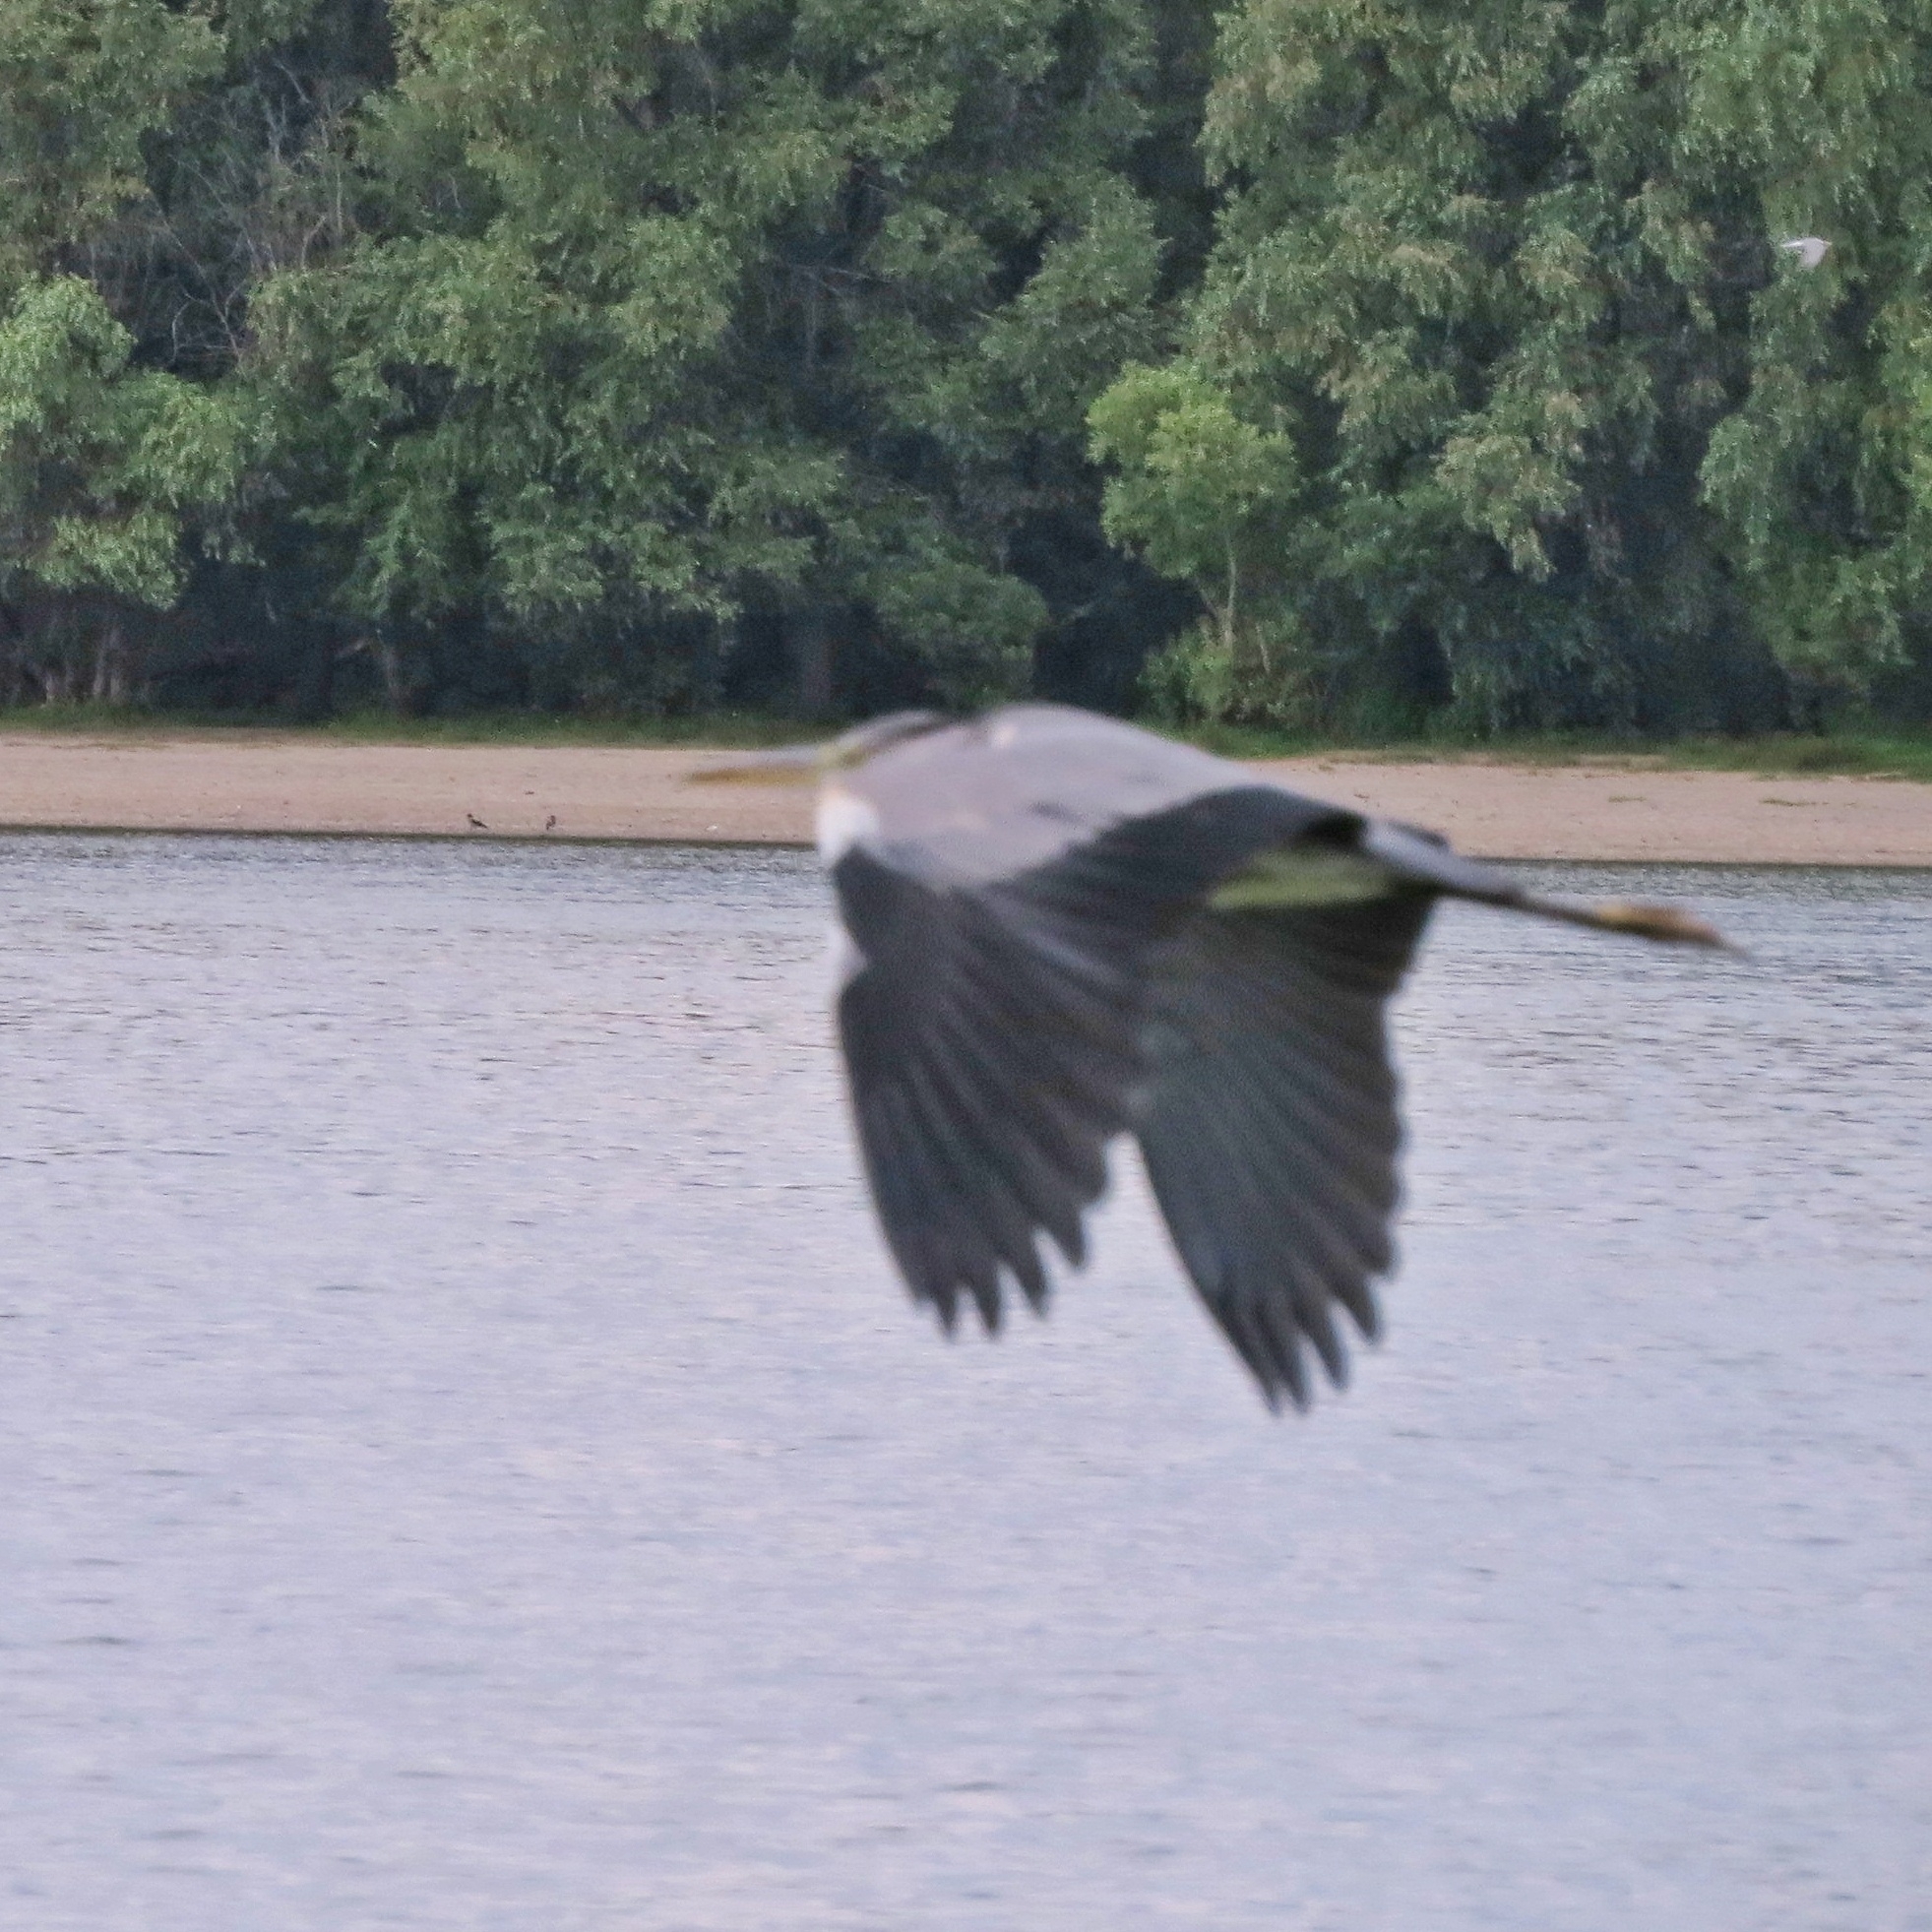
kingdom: Animalia
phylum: Chordata
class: Aves
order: Pelecaniformes
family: Ardeidae
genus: Ardea
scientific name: Ardea cinerea
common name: Grey heron
